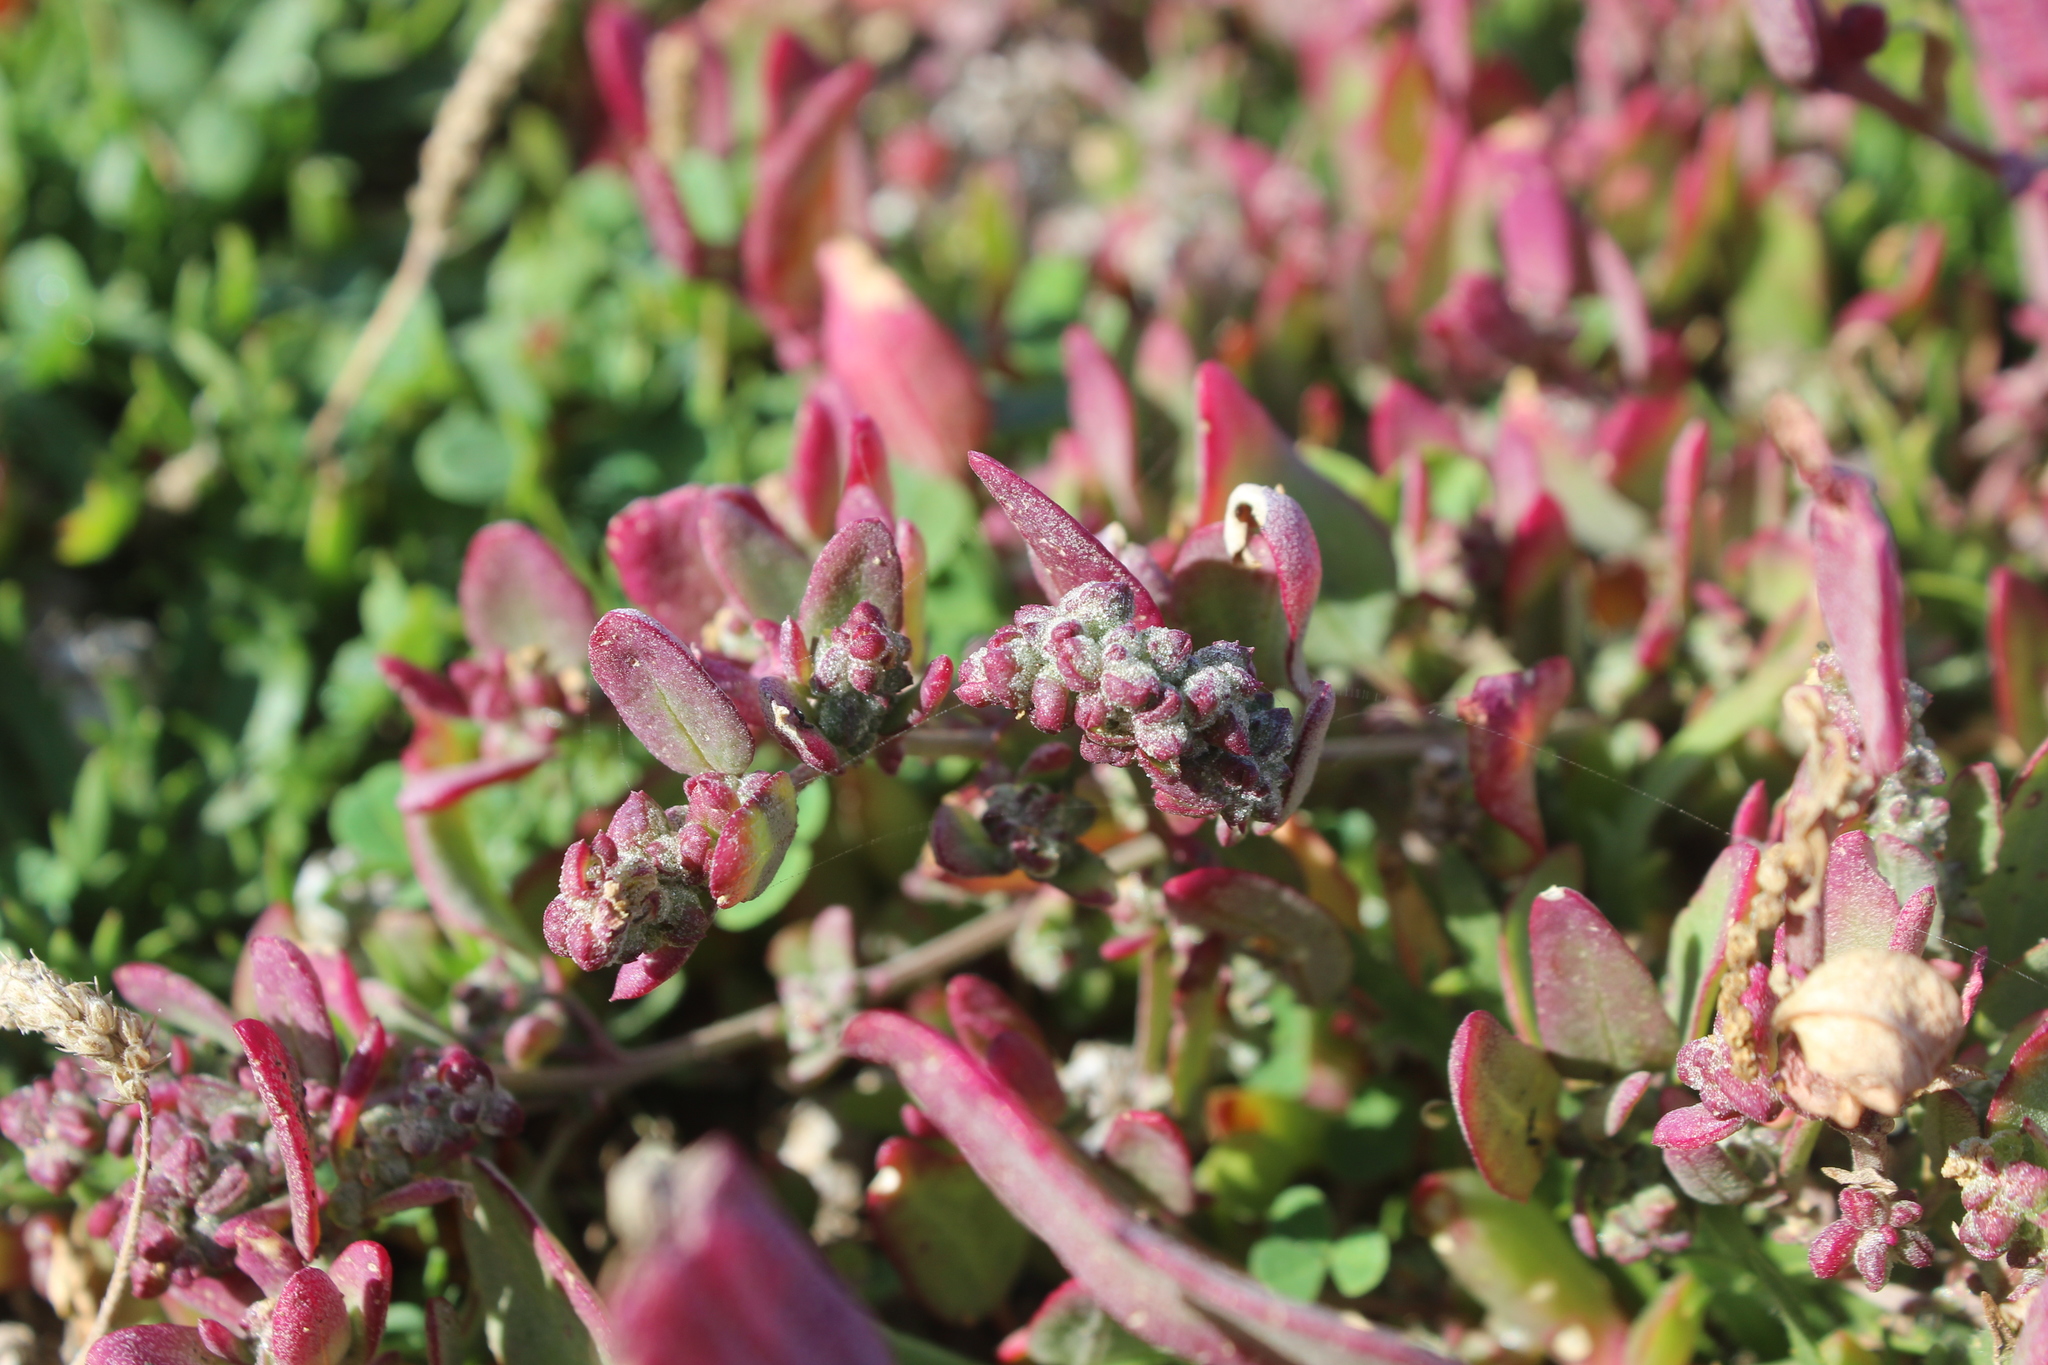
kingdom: Plantae
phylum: Tracheophyta
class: Magnoliopsida
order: Caryophyllales
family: Amaranthaceae
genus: Atriplex
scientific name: Atriplex prostrata
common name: Spear-leaved orache
